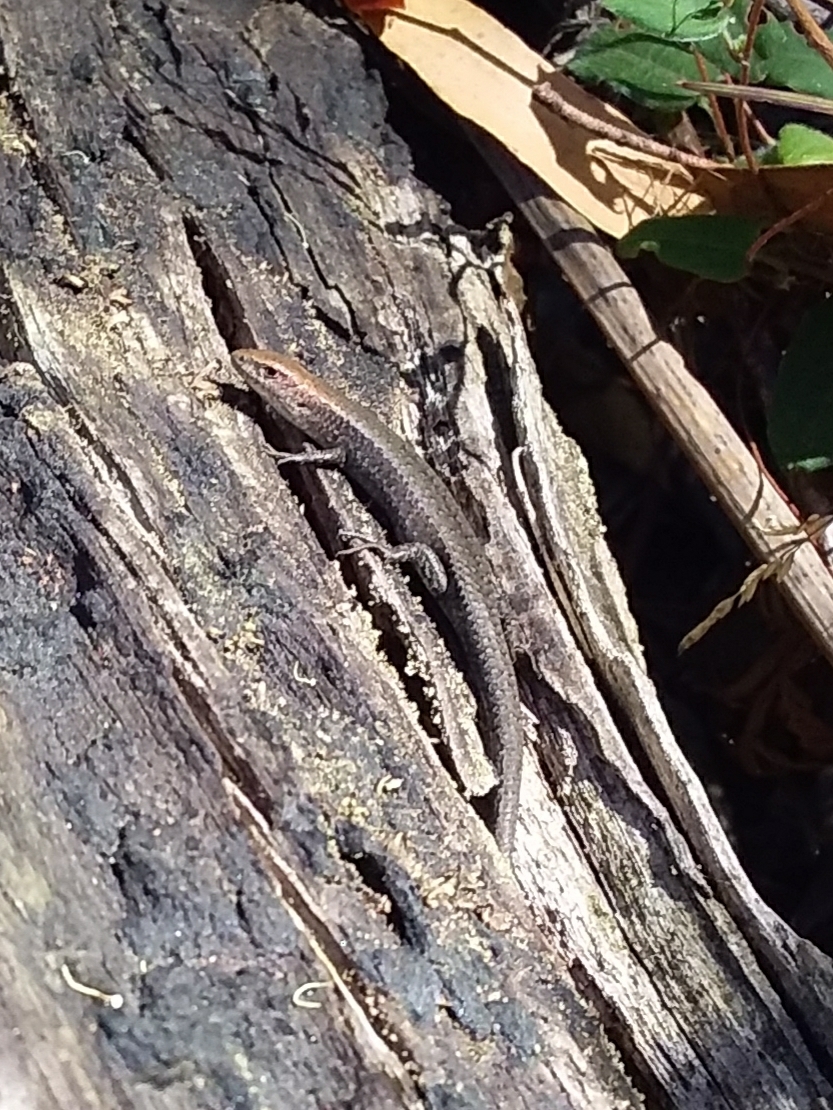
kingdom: Animalia
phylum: Chordata
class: Squamata
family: Scincidae
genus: Lampropholis
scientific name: Lampropholis guichenoti
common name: Garden skink
